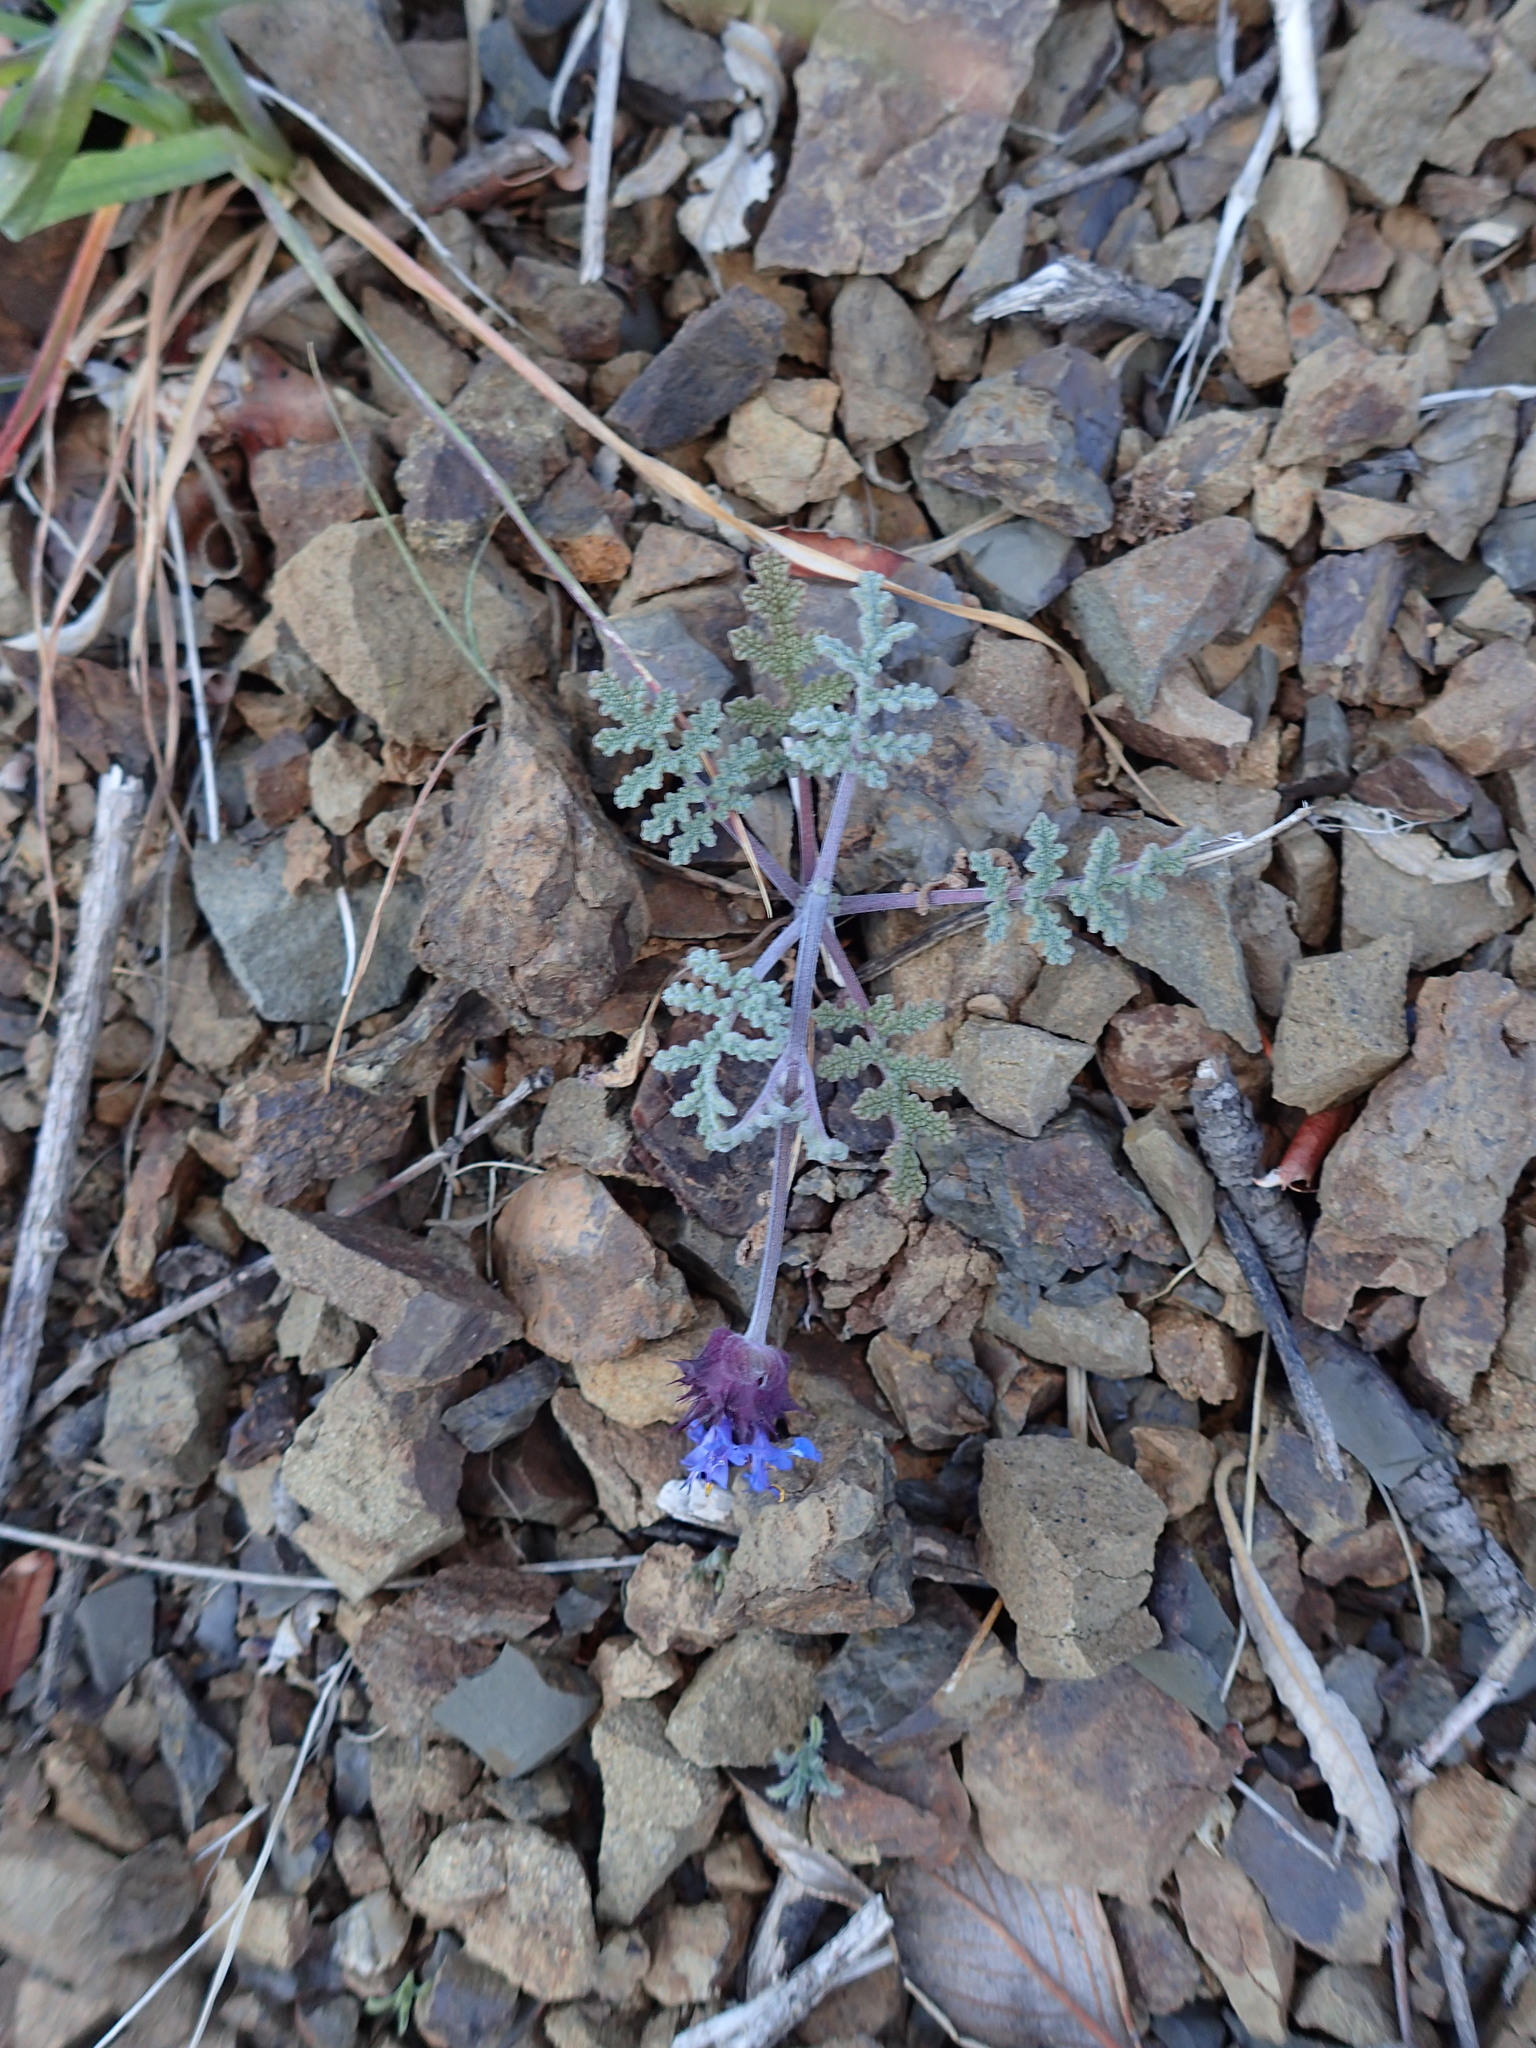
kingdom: Plantae
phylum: Tracheophyta
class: Magnoliopsida
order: Lamiales
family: Lamiaceae
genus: Salvia
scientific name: Salvia columbariae
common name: Chia
